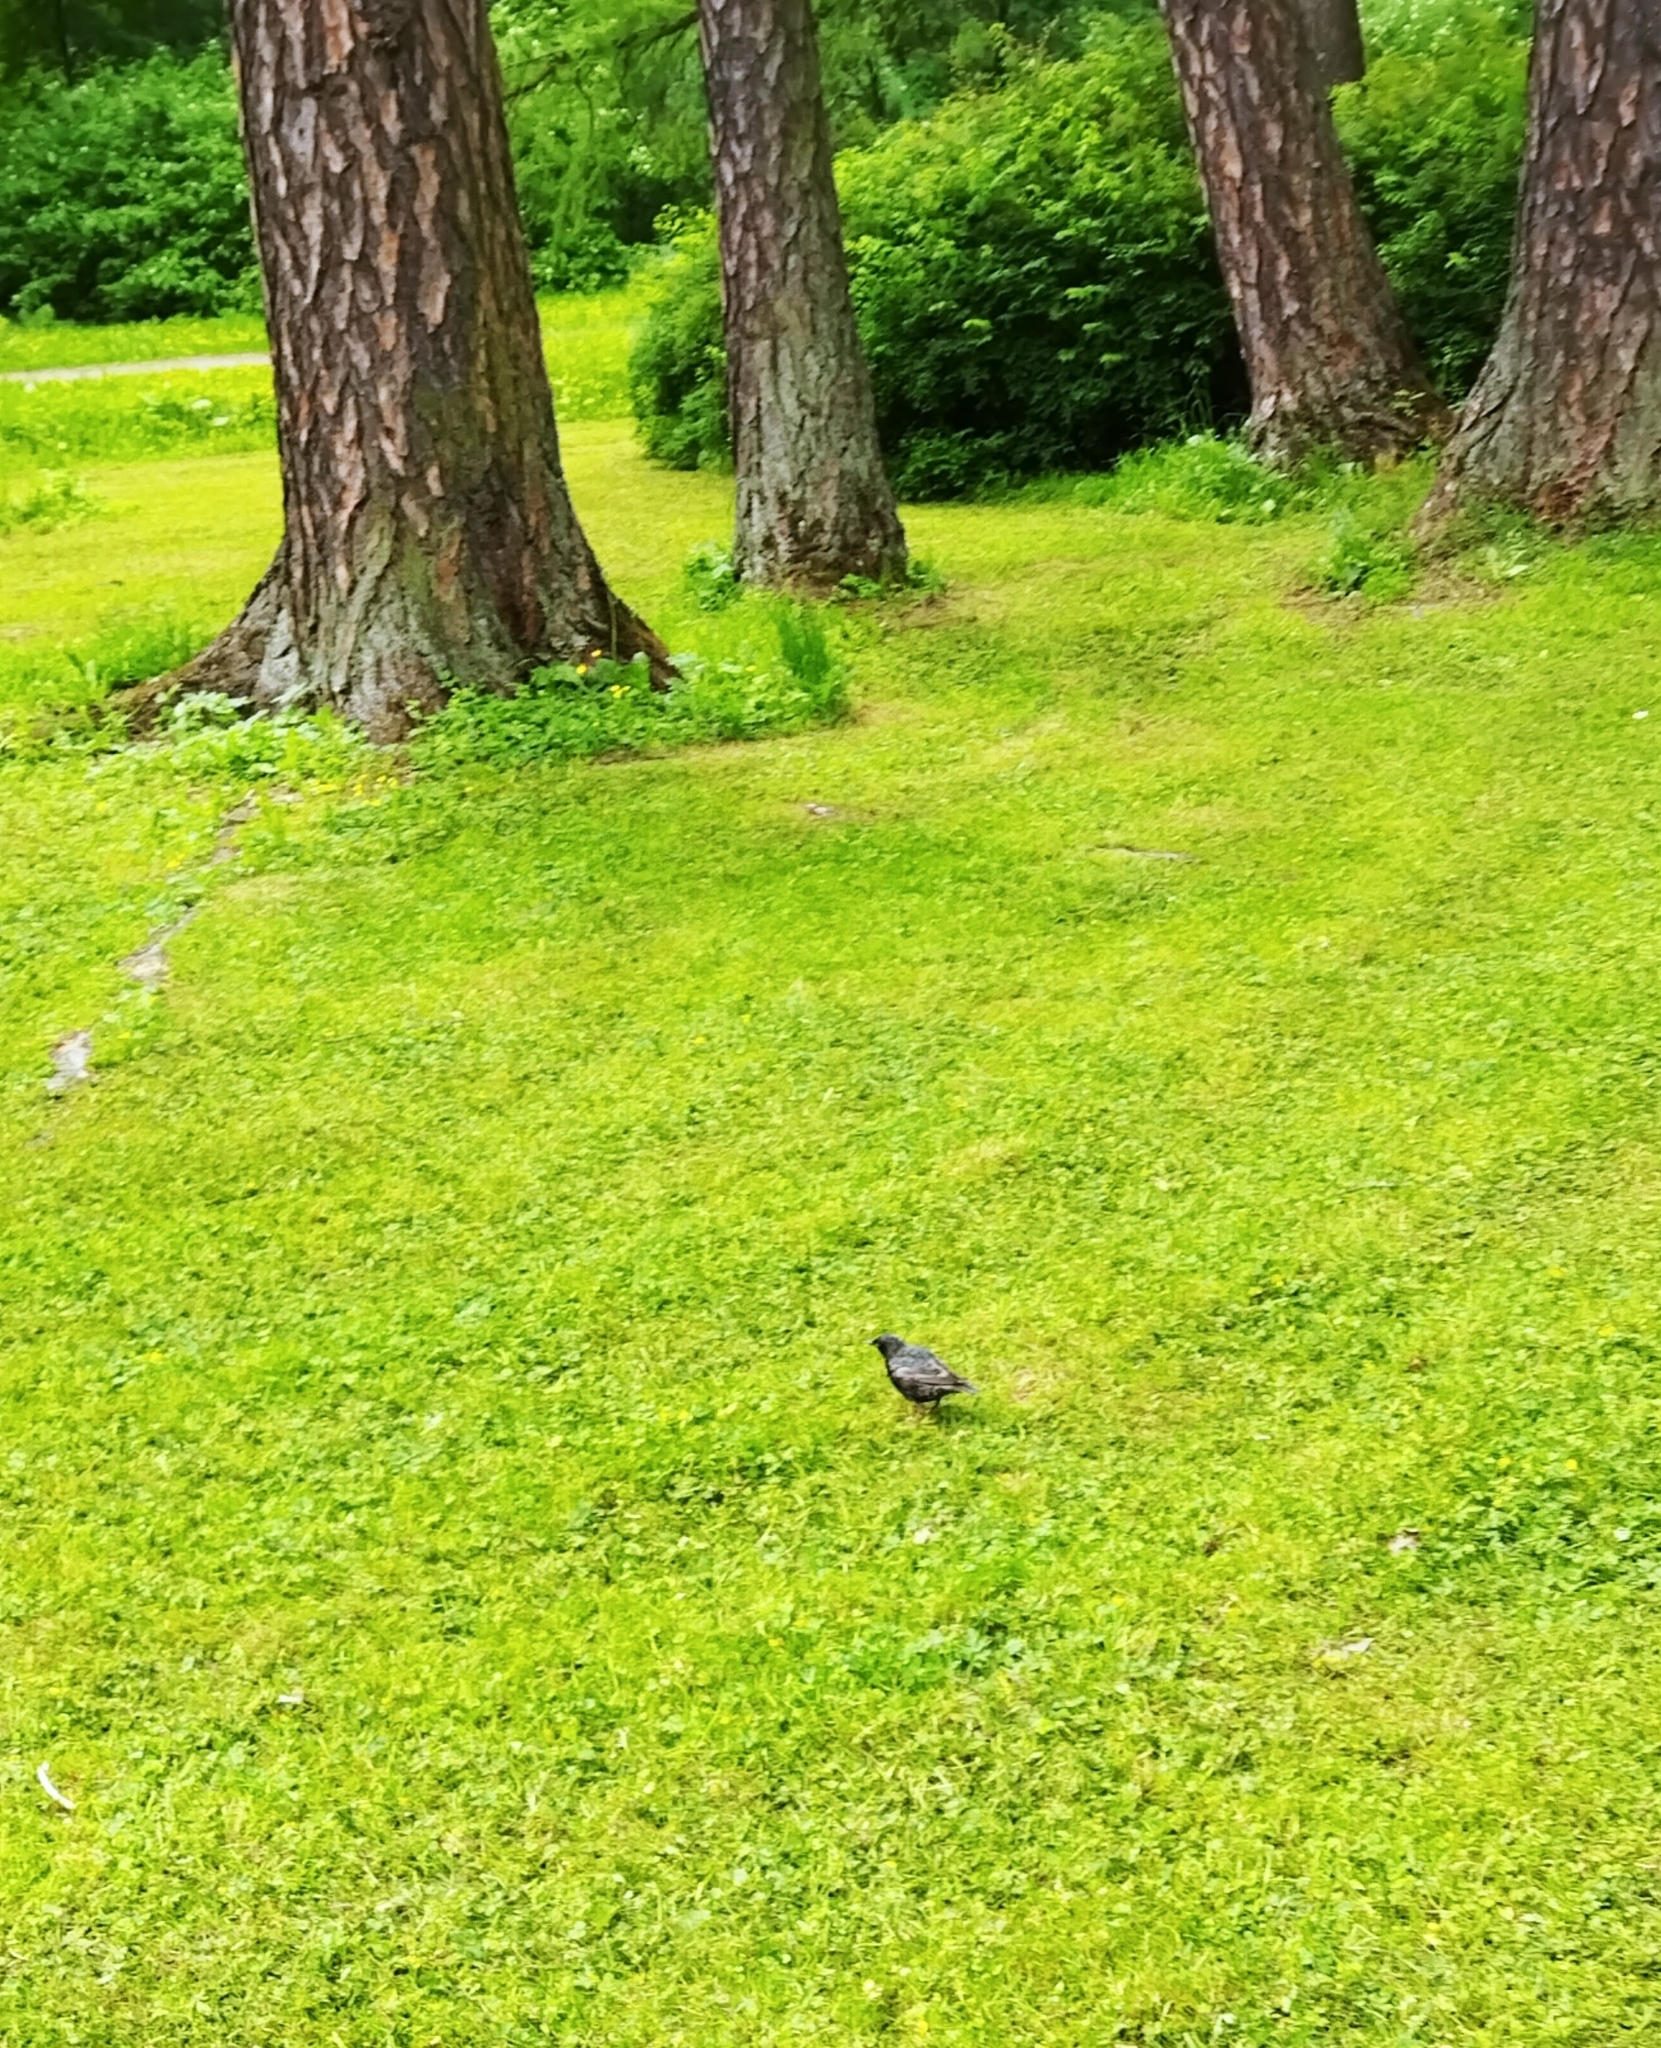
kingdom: Animalia
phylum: Chordata
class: Aves
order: Passeriformes
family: Sturnidae
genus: Sturnus
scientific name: Sturnus vulgaris
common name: Common starling
